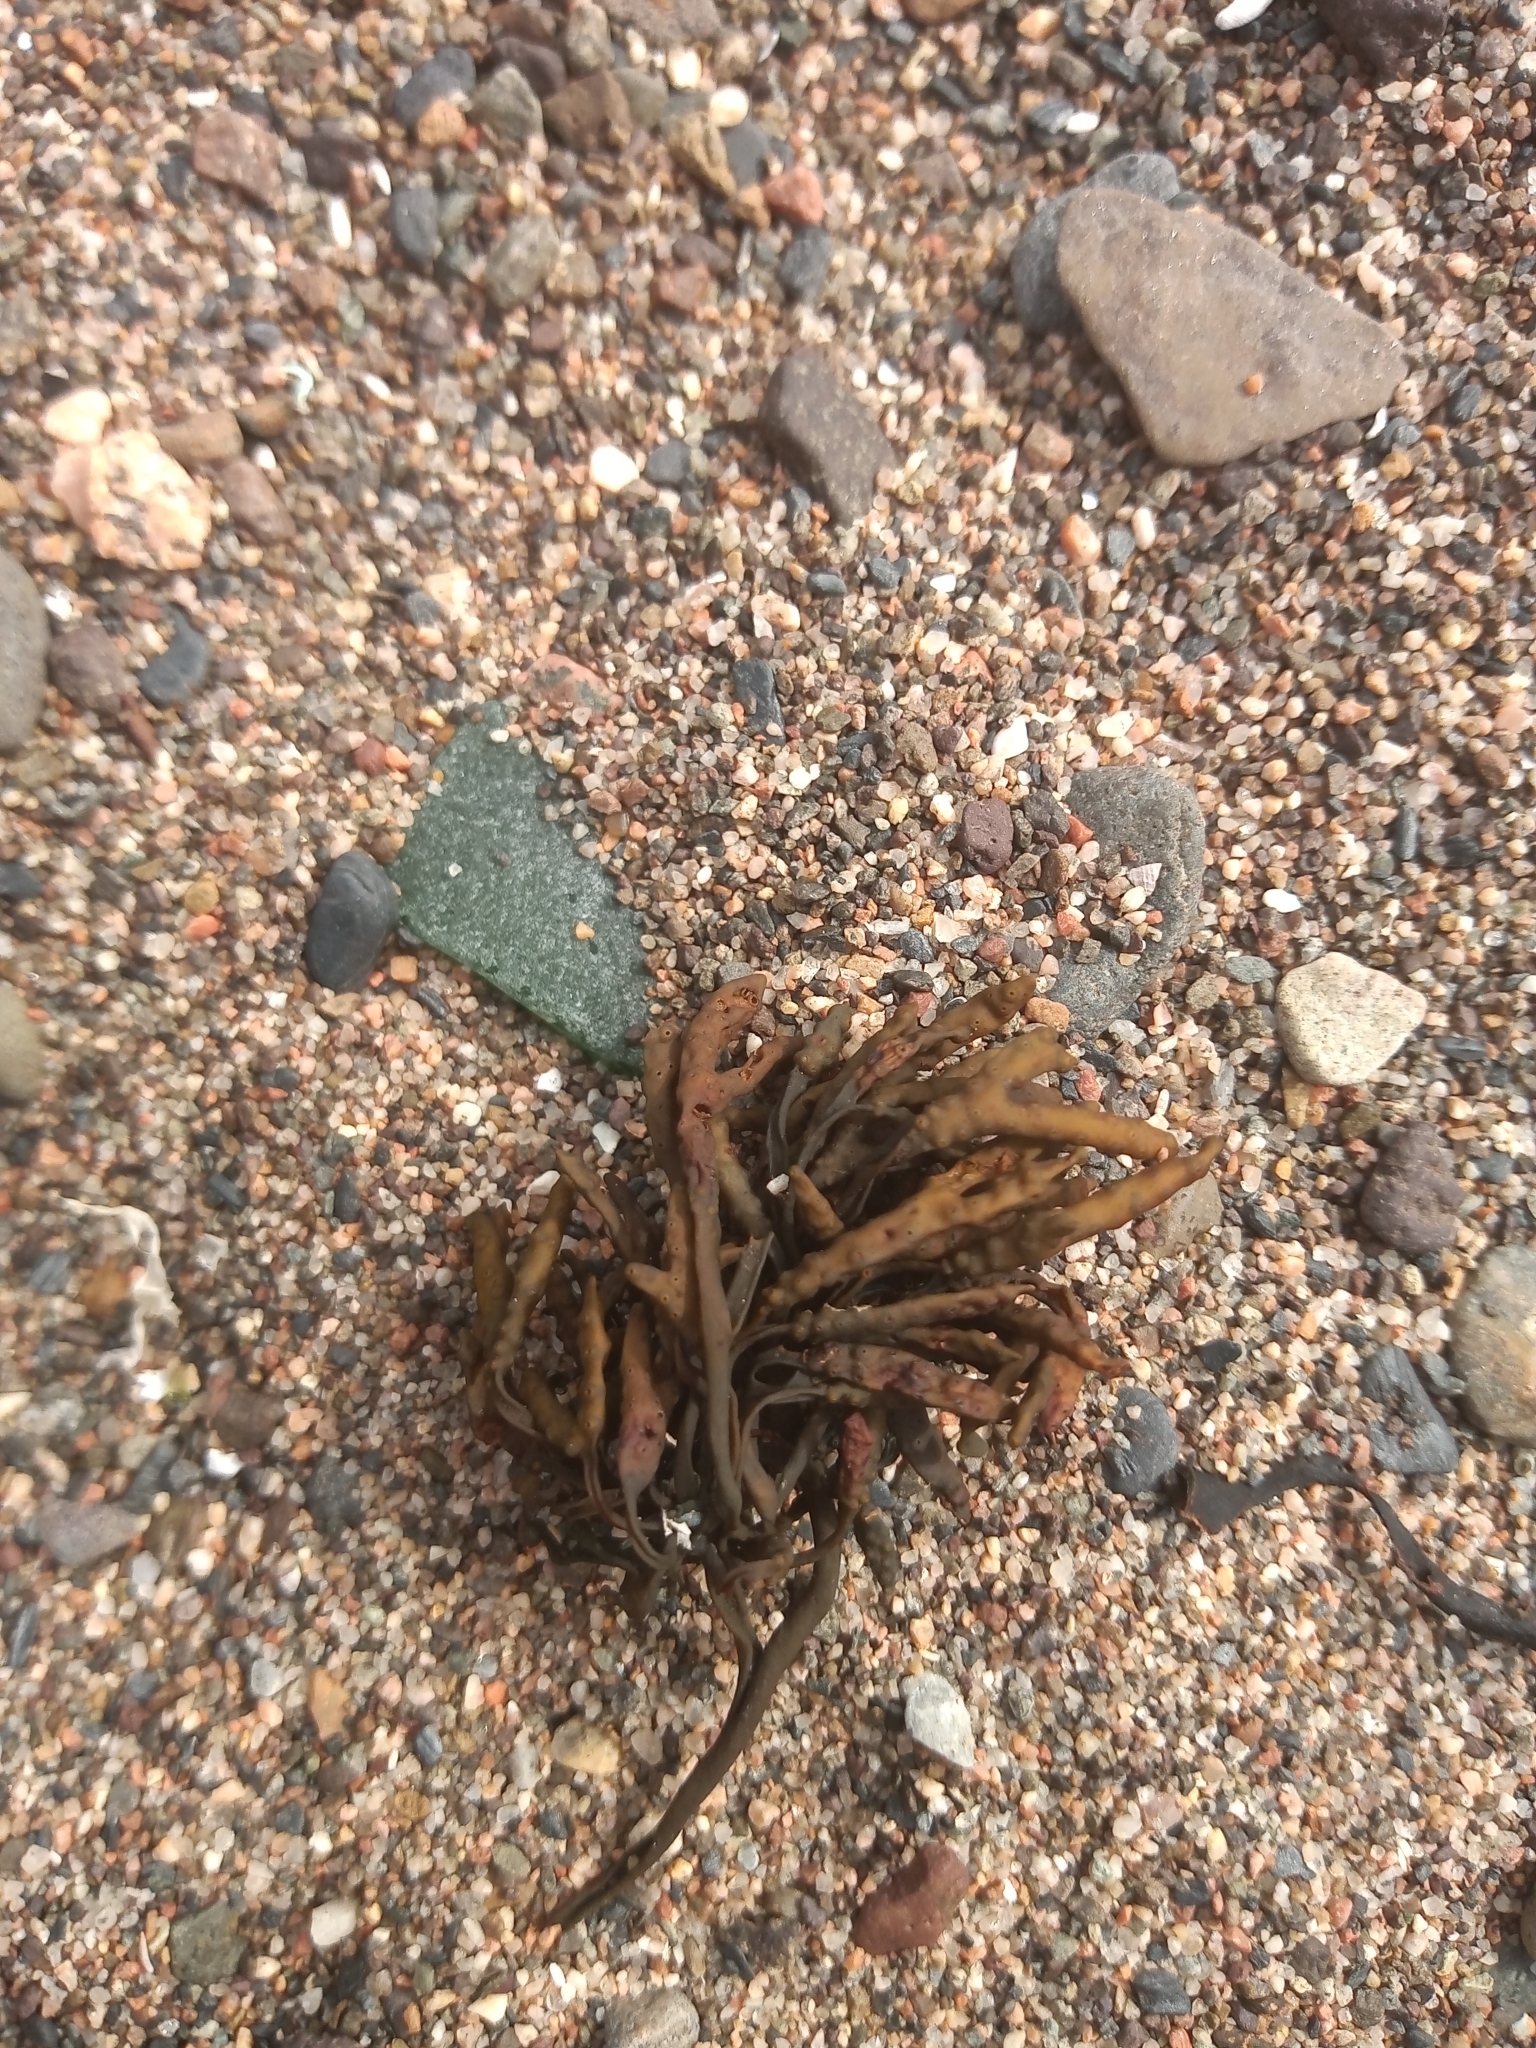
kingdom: Chromista
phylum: Ochrophyta
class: Phaeophyceae
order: Fucales
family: Fucaceae
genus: Pelvetia
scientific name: Pelvetia canaliculata
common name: Channelled wrack
